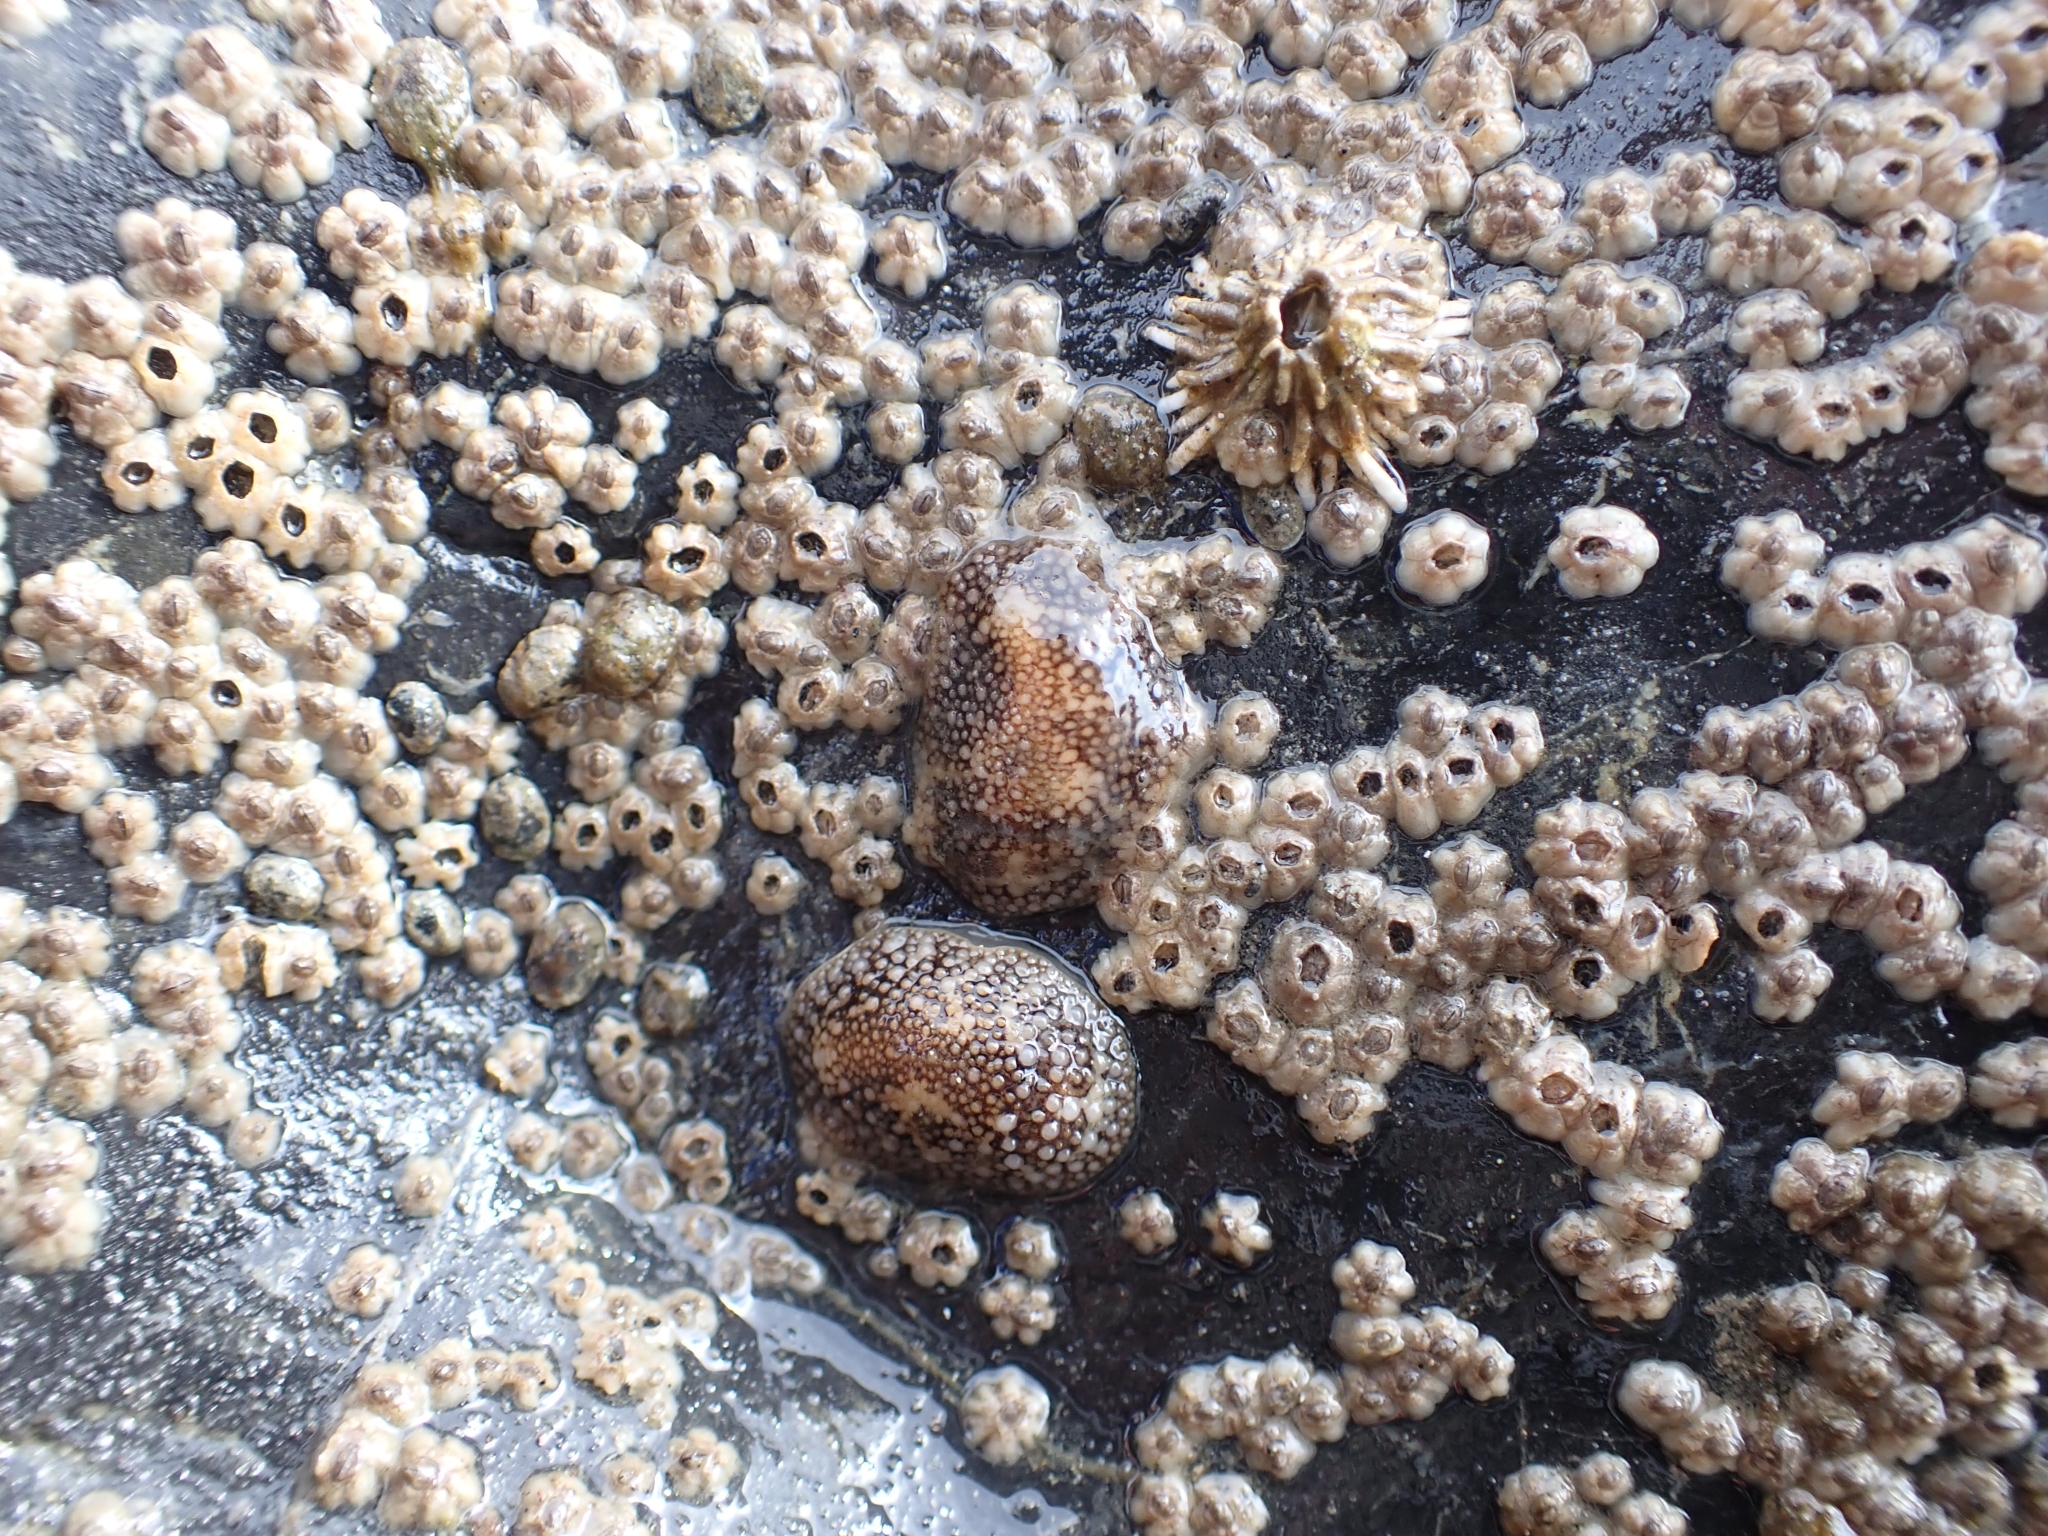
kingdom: Animalia
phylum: Mollusca
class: Gastropoda
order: Nudibranchia
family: Onchidorididae
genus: Onchidoris
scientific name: Onchidoris bilamellata
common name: Barnacle-eating onchidoris
